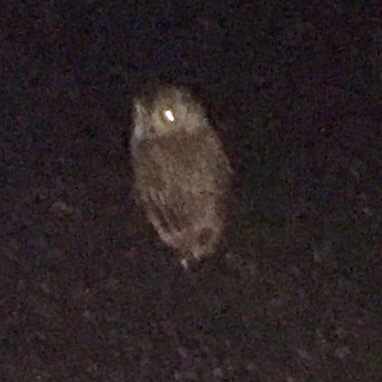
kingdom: Animalia
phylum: Chordata
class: Aves
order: Strigiformes
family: Strigidae
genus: Megascops
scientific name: Megascops kennicottii
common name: Western screech-owl
